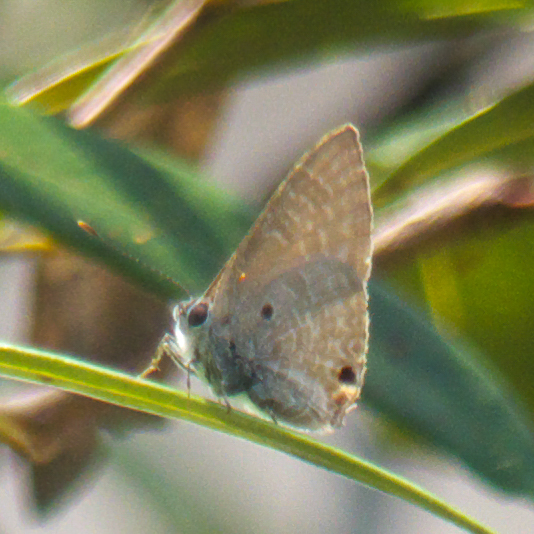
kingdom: Animalia
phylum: Arthropoda
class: Insecta
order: Lepidoptera
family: Lycaenidae
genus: Anthene
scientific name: Anthene lycaenina
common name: Pointed ciliate blue
